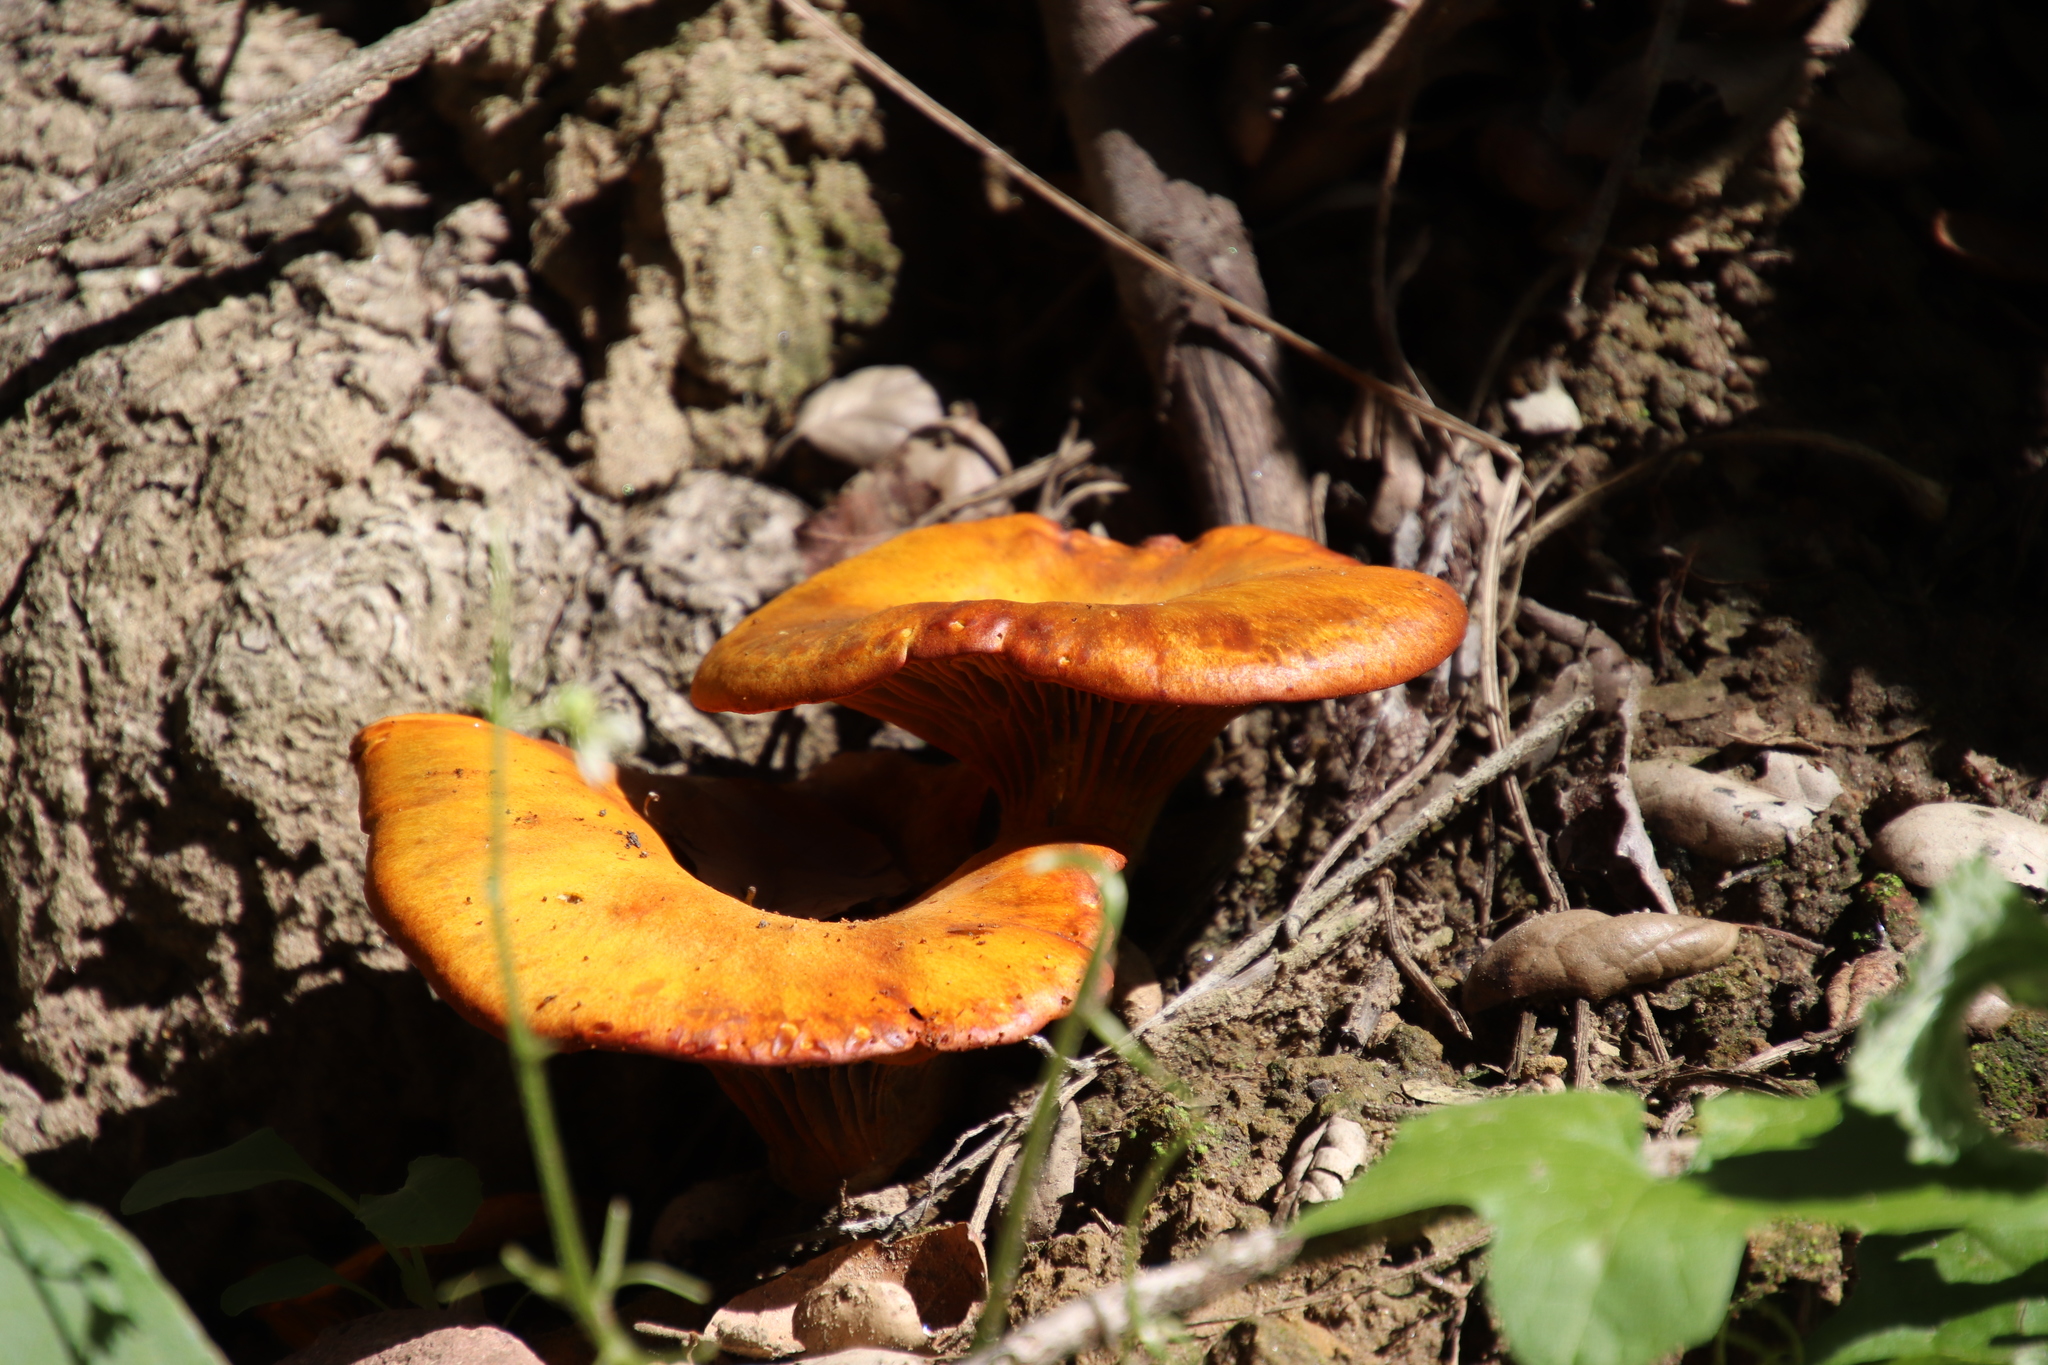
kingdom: Fungi
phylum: Basidiomycota
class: Agaricomycetes
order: Agaricales
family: Omphalotaceae
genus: Omphalotus
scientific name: Omphalotus olivascens
